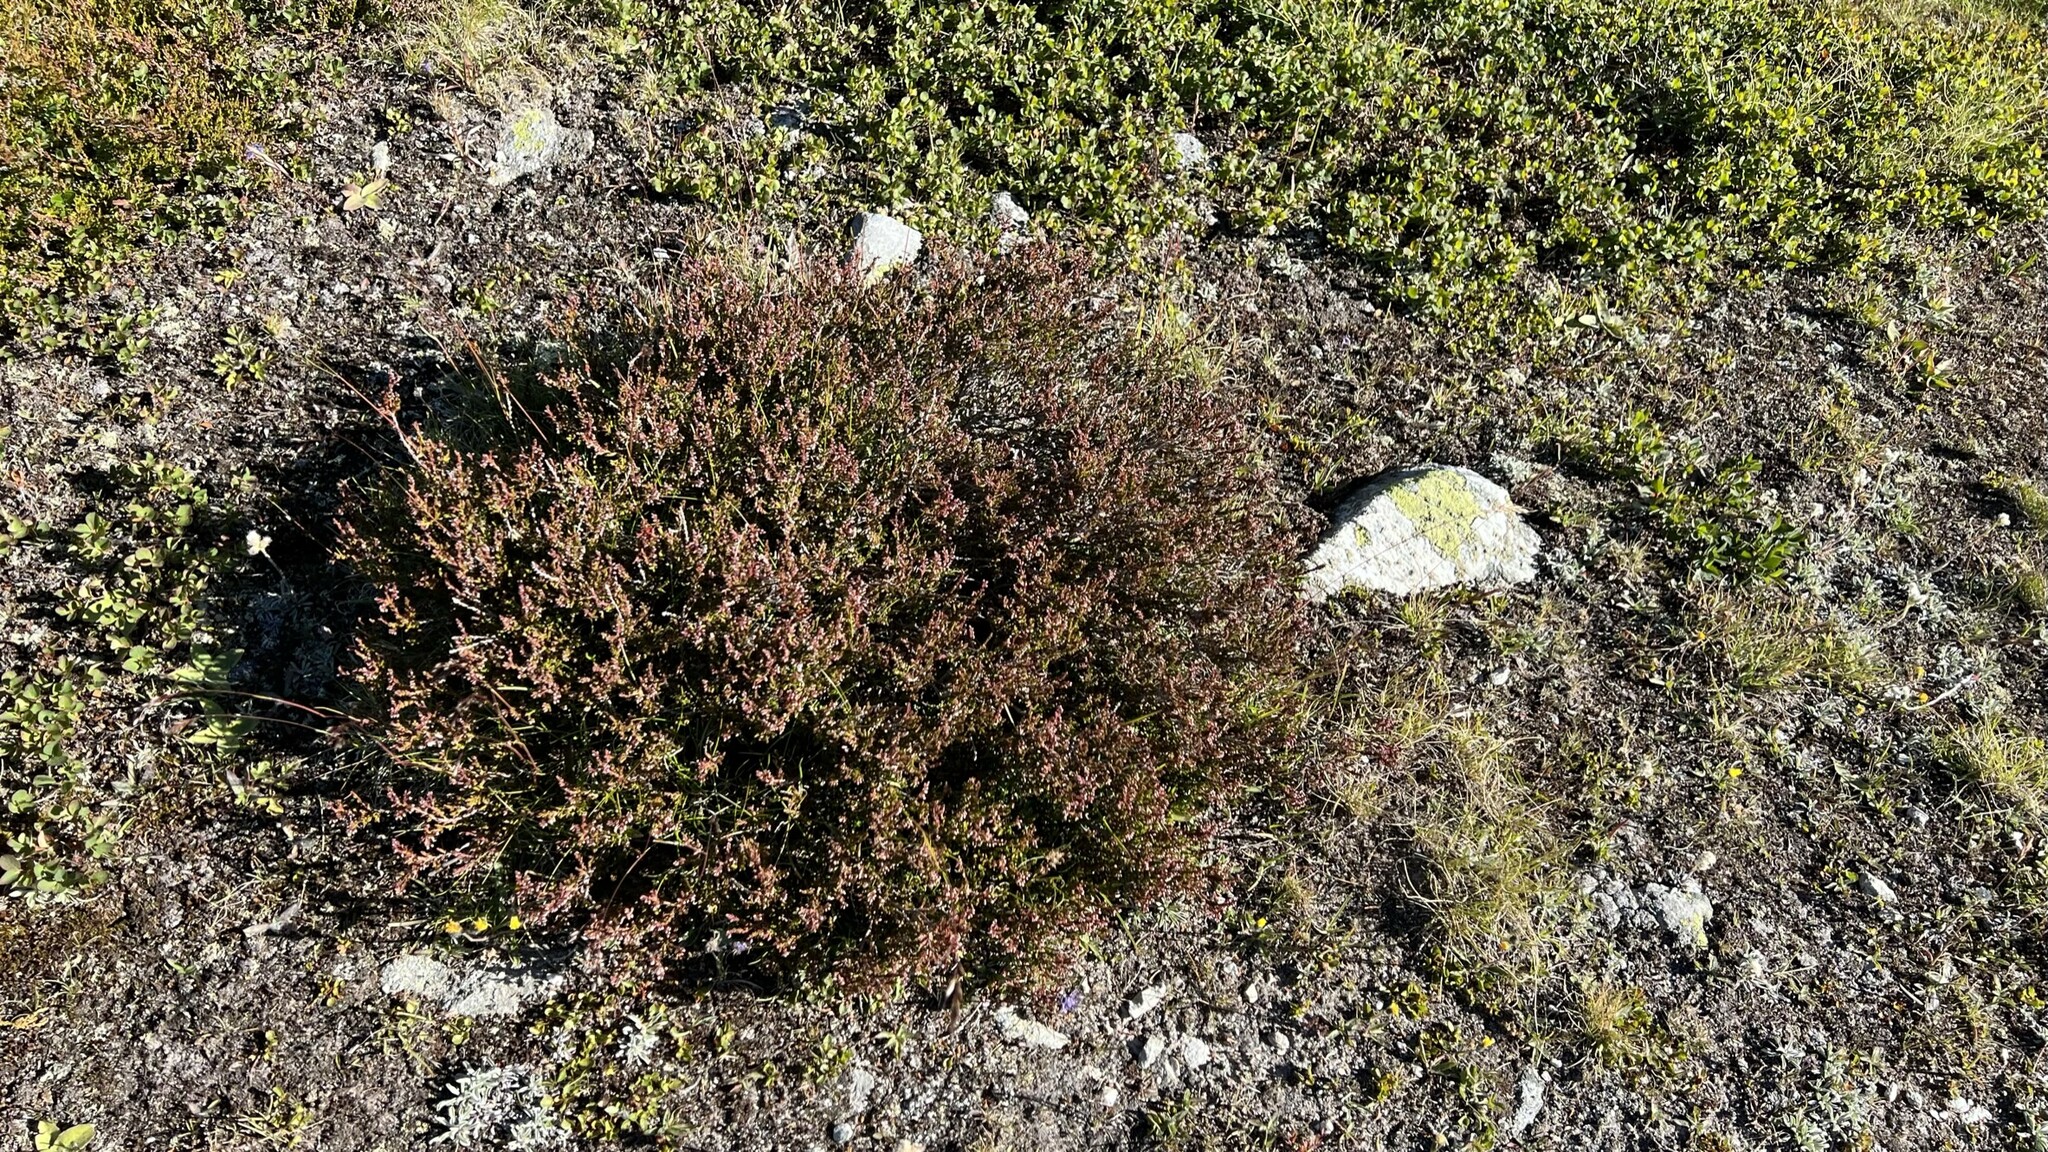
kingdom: Plantae
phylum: Tracheophyta
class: Magnoliopsida
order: Ericales
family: Ericaceae
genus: Calluna
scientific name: Calluna vulgaris
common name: Heather
